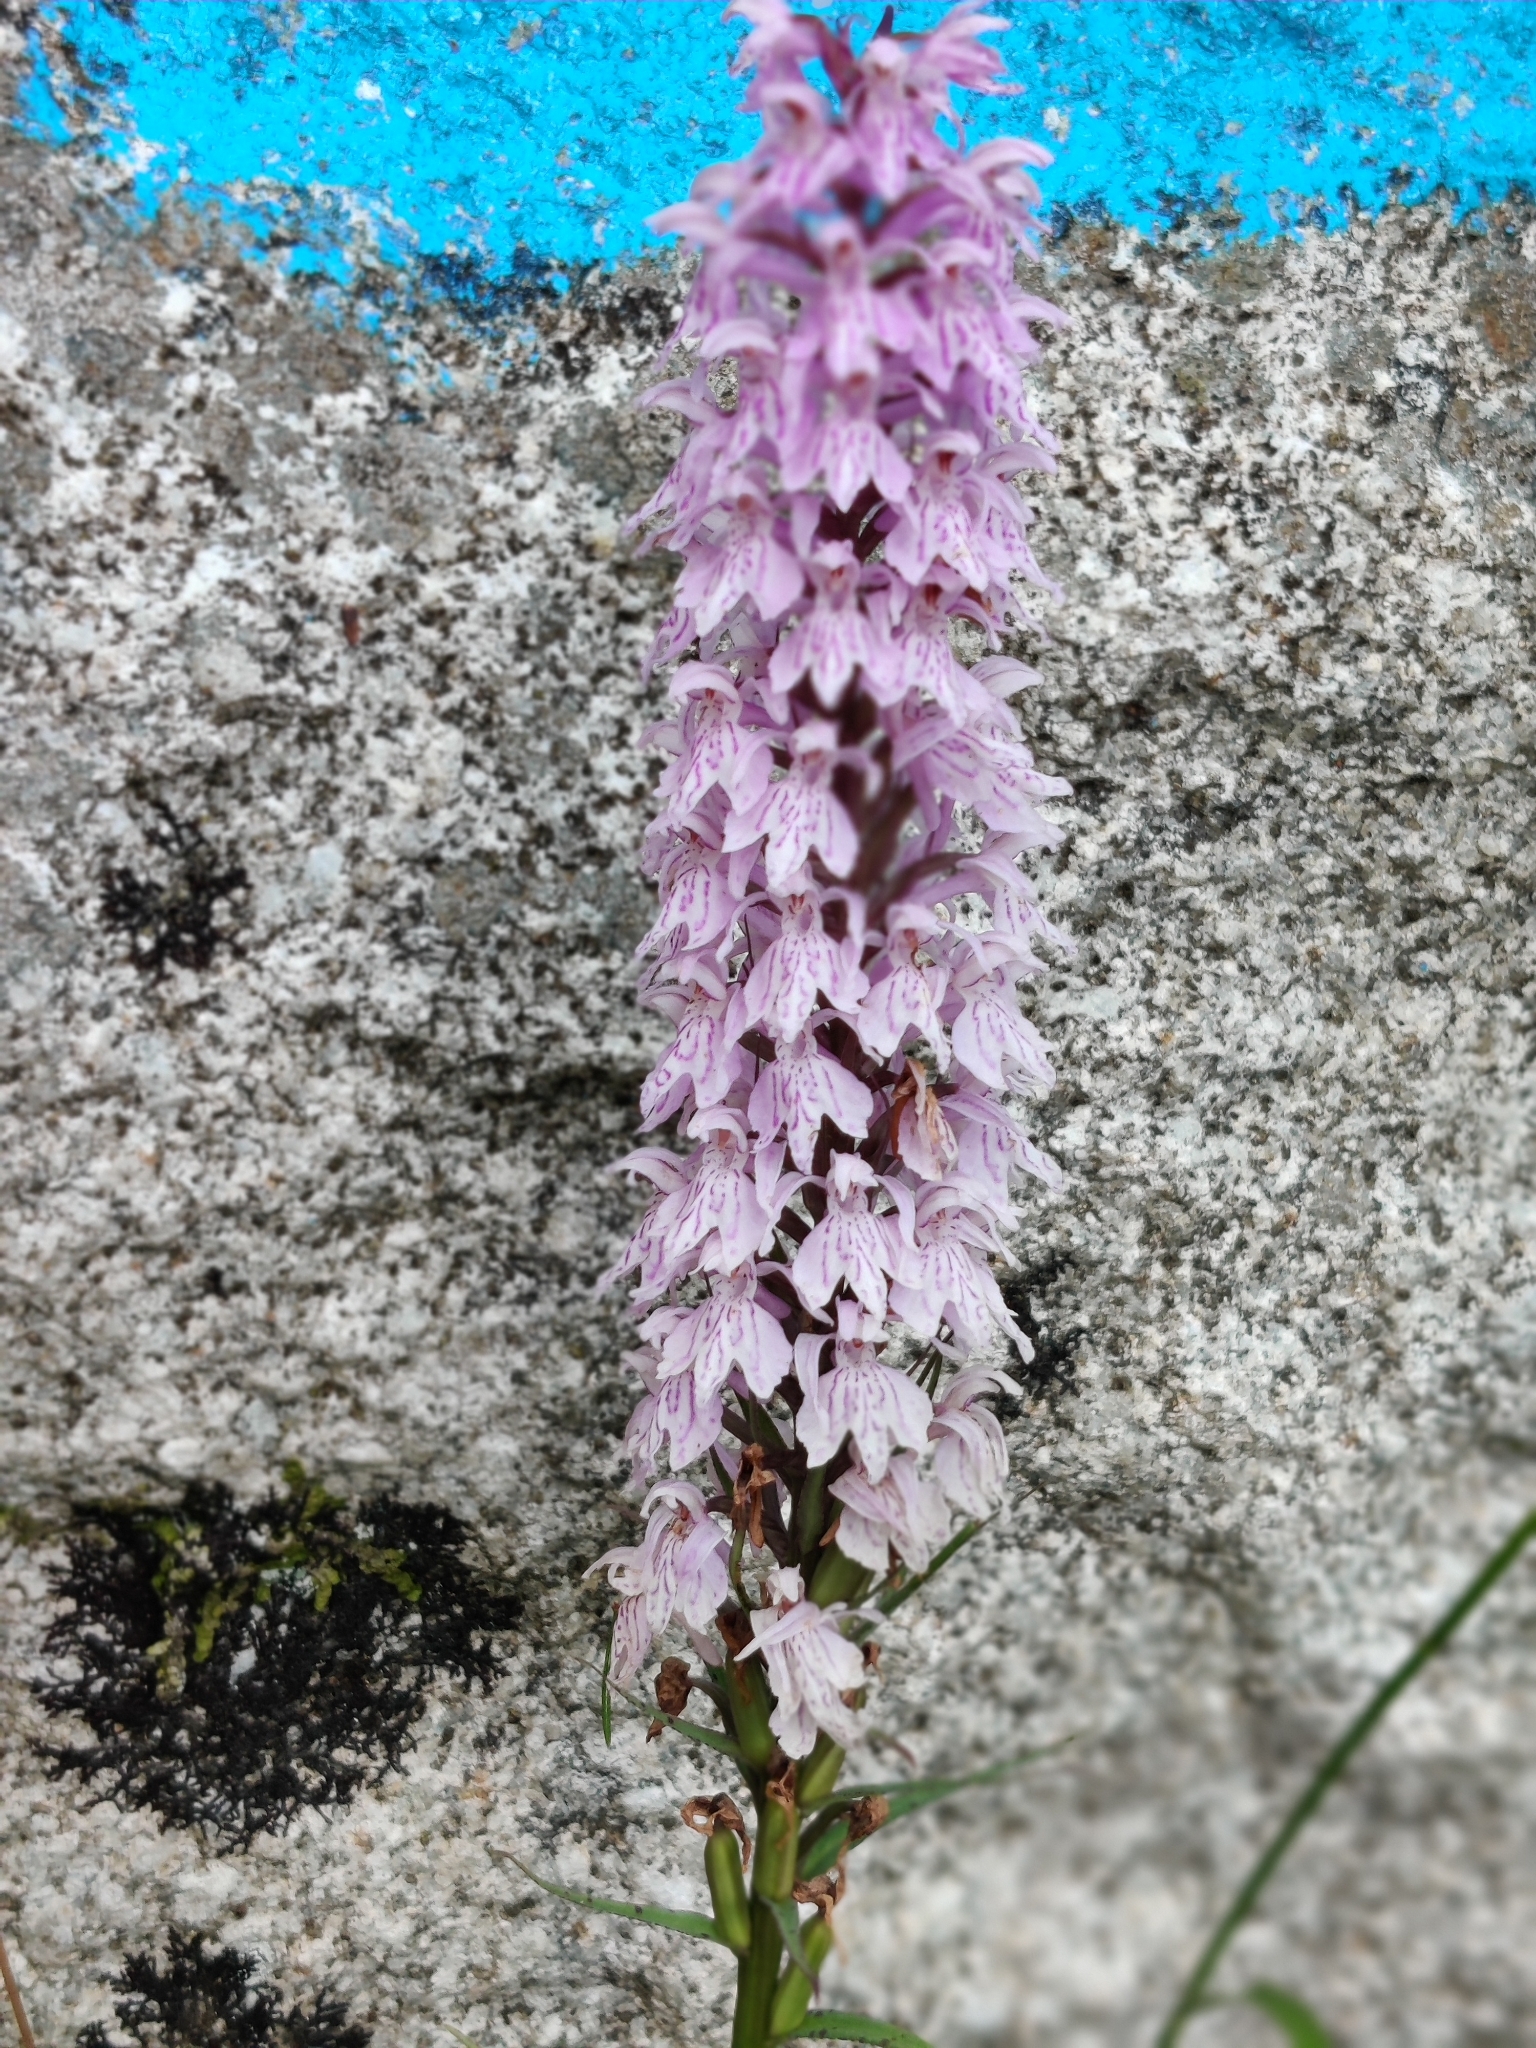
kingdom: Plantae
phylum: Tracheophyta
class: Liliopsida
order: Asparagales
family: Orchidaceae
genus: Dactylorhiza
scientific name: Dactylorhiza maculata
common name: Heath spotted-orchid
